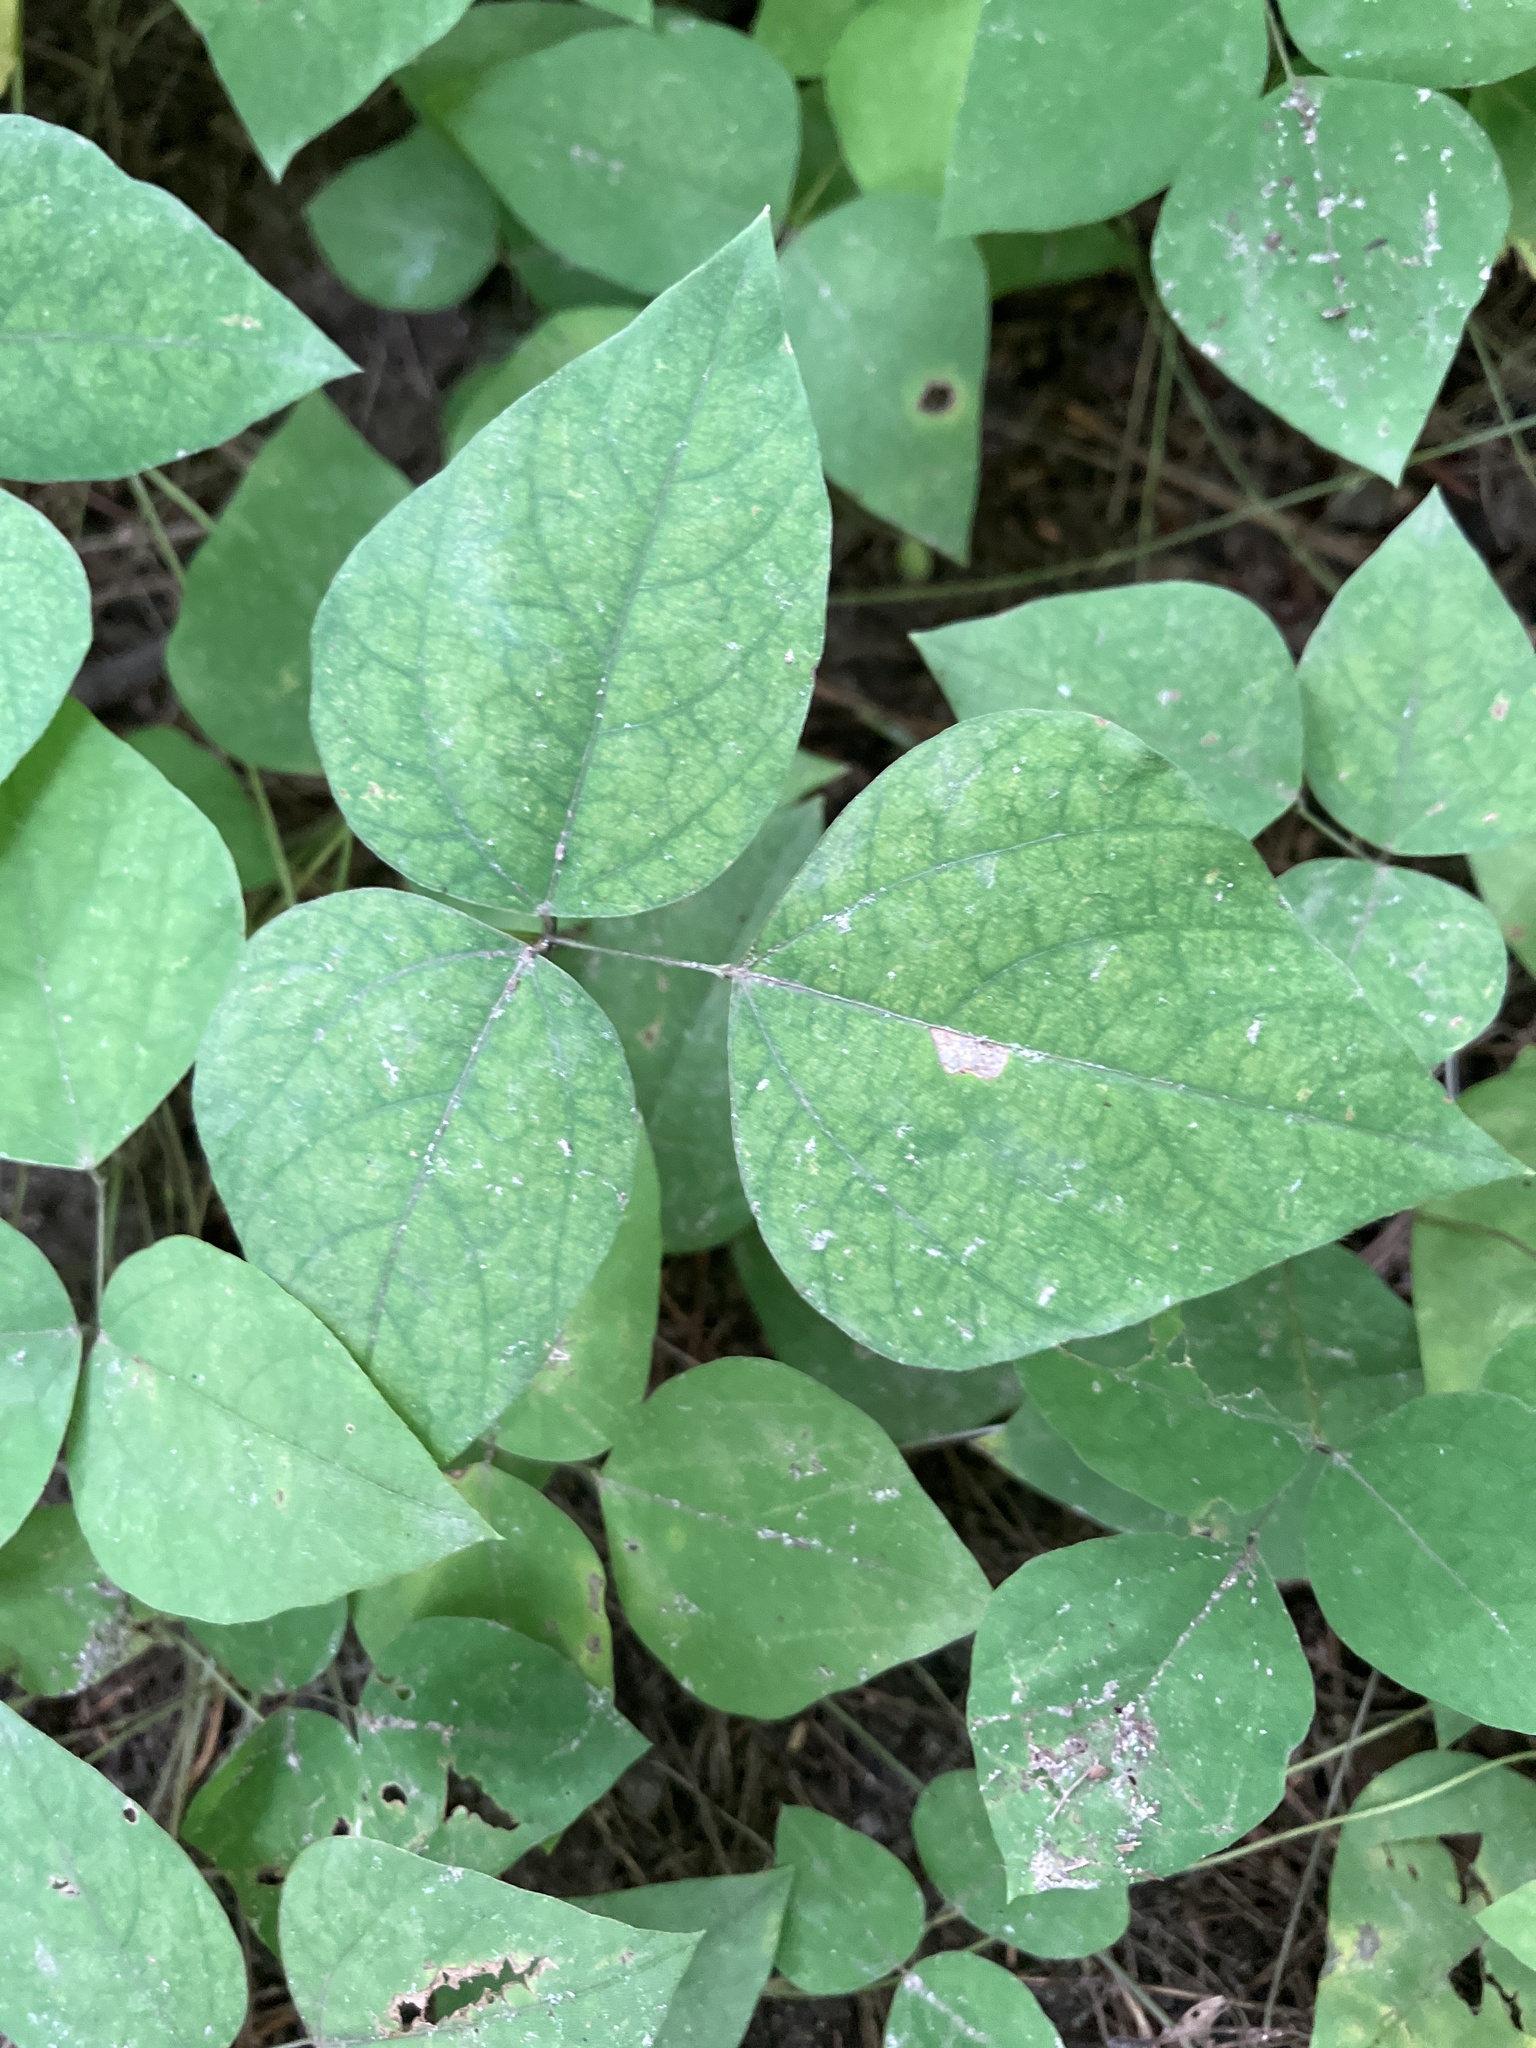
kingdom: Plantae
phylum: Tracheophyta
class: Magnoliopsida
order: Fabales
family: Fabaceae
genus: Amphicarpaea
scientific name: Amphicarpaea bracteata
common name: American hog peanut
